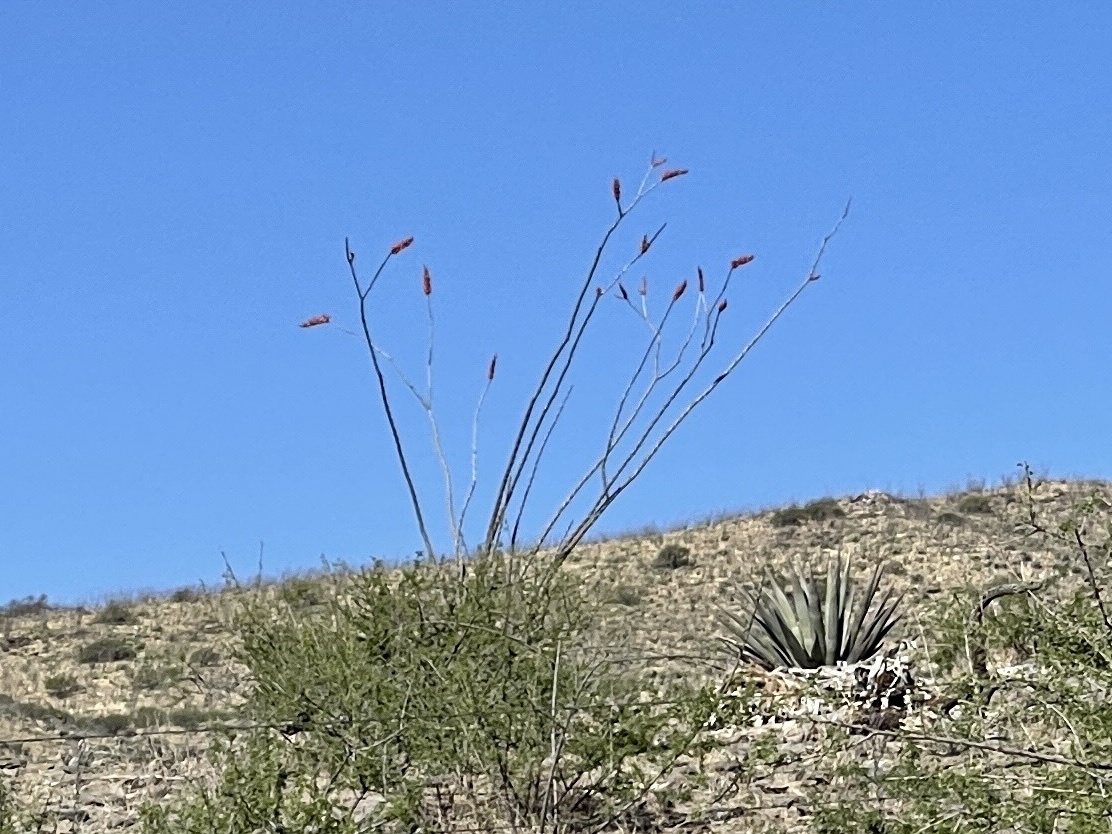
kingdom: Plantae
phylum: Tracheophyta
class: Magnoliopsida
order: Ericales
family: Fouquieriaceae
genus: Fouquieria
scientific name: Fouquieria splendens
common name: Vine-cactus
